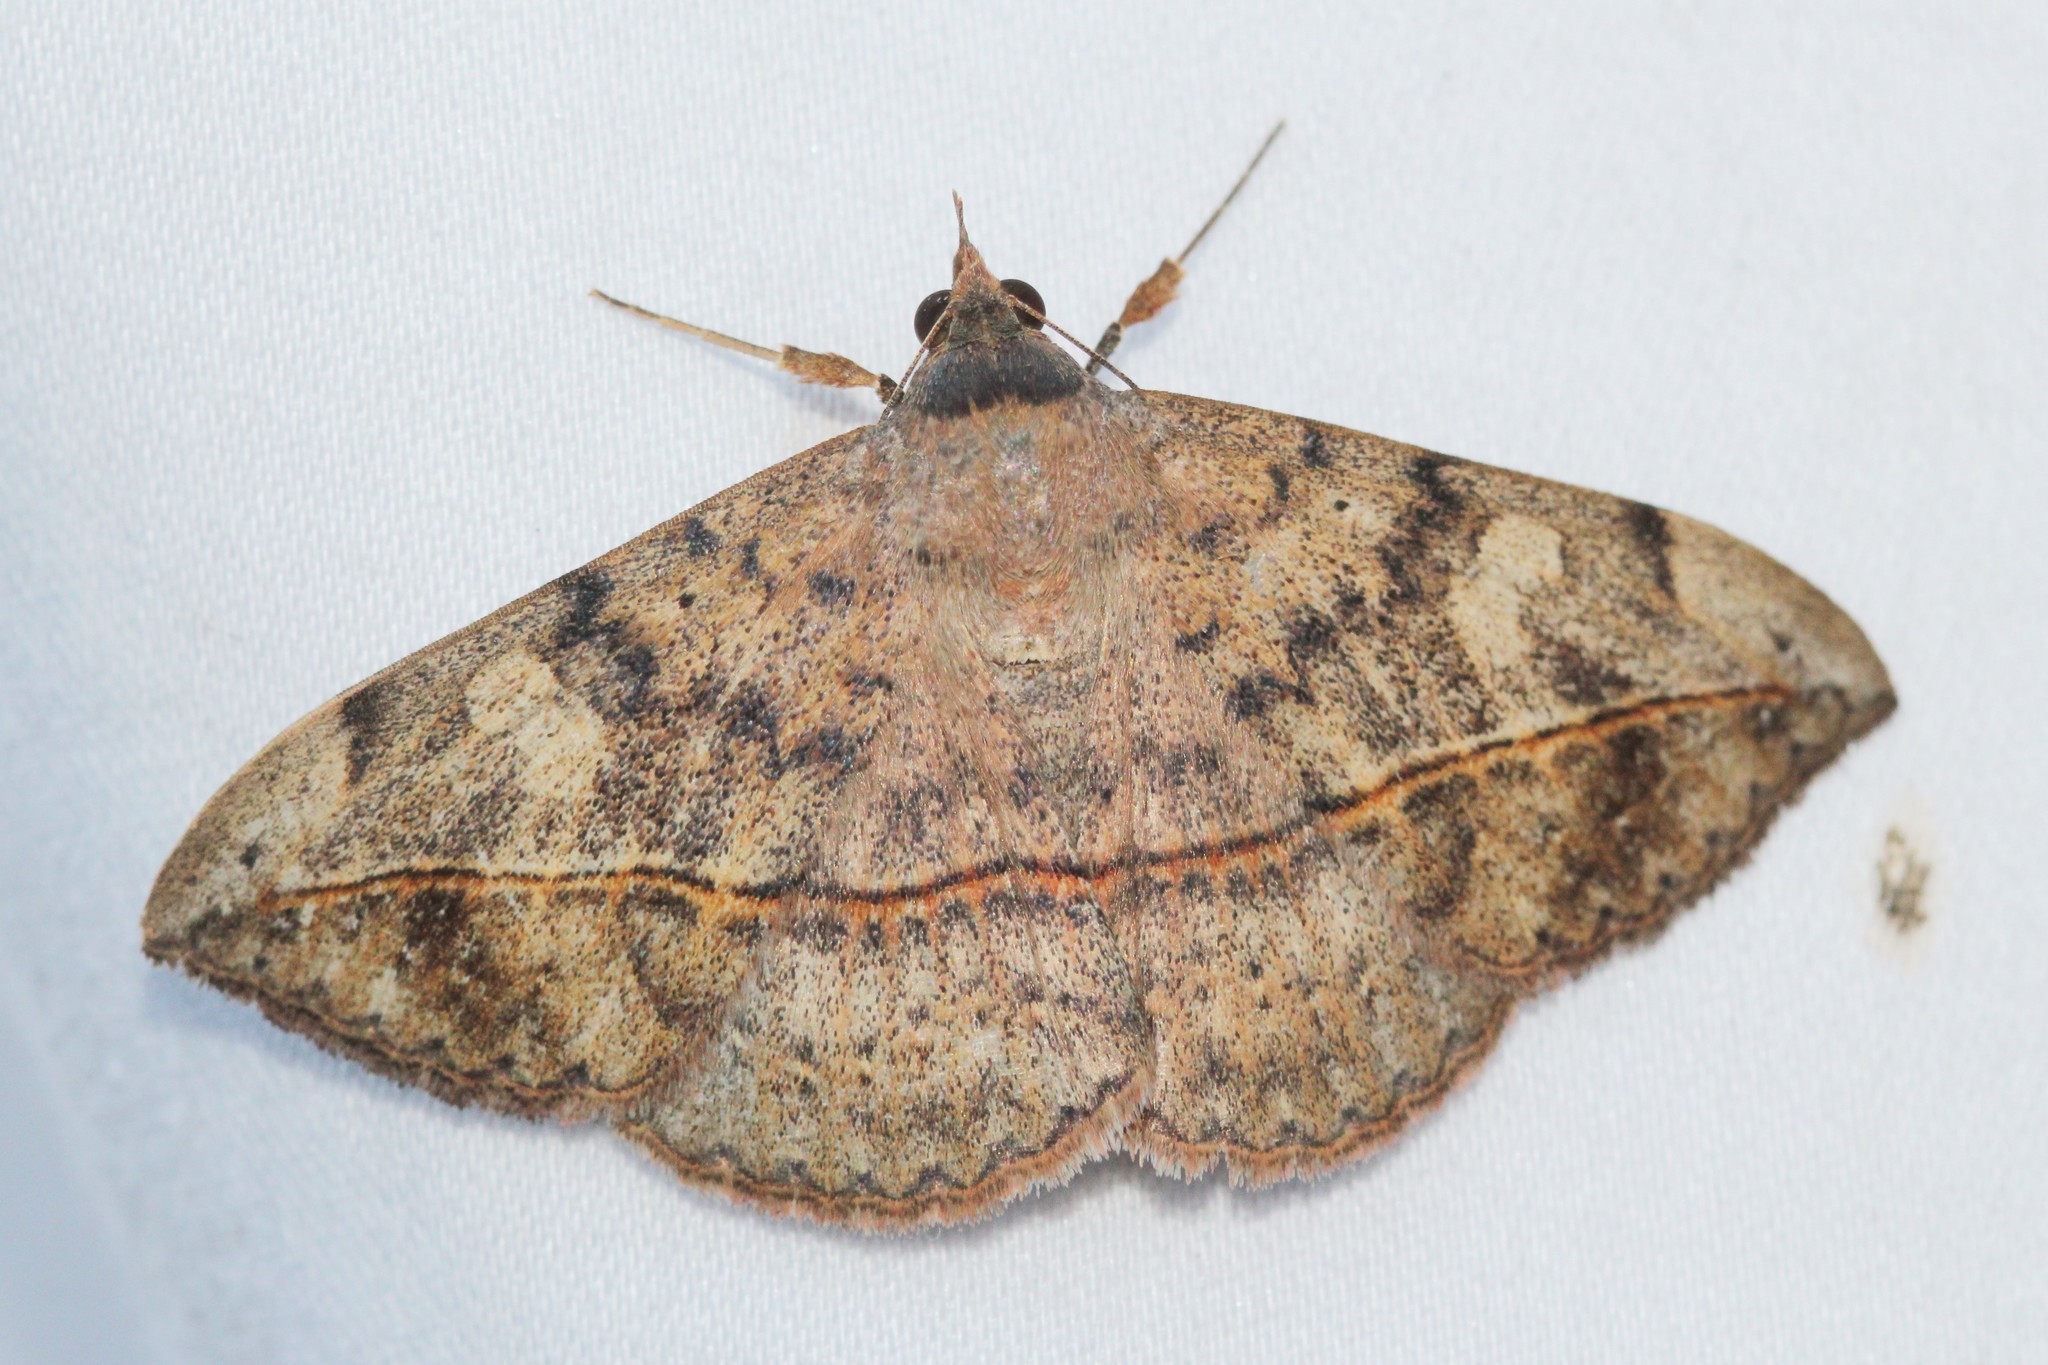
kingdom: Animalia
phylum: Arthropoda
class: Insecta
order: Lepidoptera
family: Erebidae
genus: Anticarsia
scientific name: Anticarsia gemmatalis
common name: Cutworm moth
